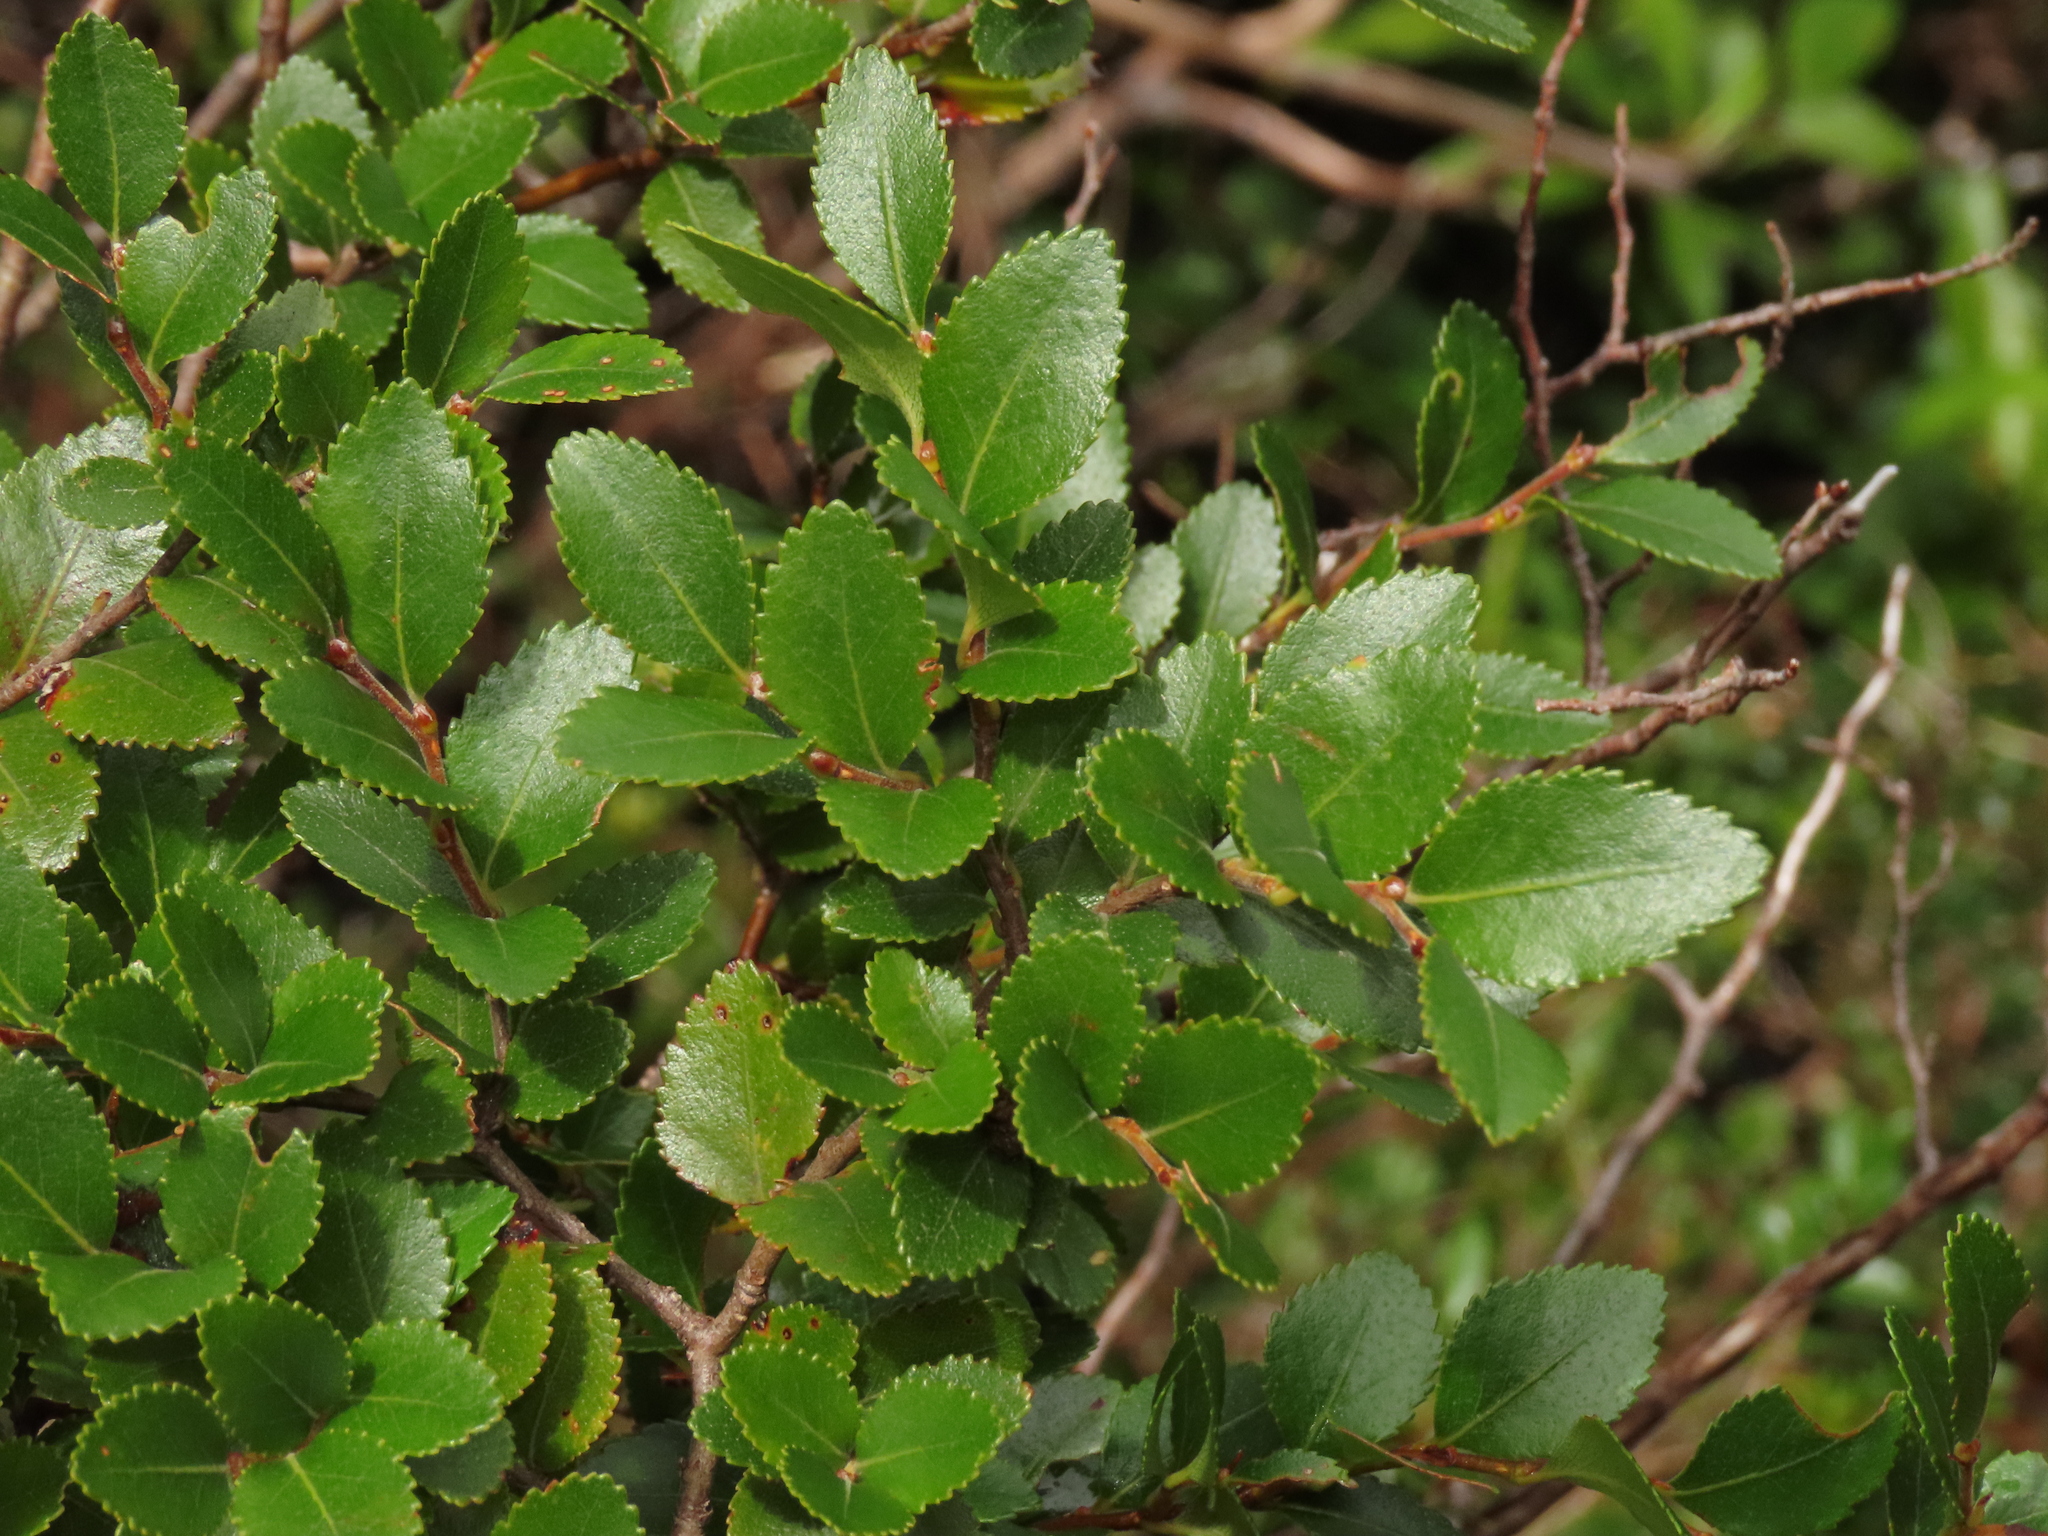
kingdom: Plantae
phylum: Tracheophyta
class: Magnoliopsida
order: Fagales
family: Nothofagaceae
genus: Nothofagus
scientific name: Nothofagus betuloides
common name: Magellan's beech
